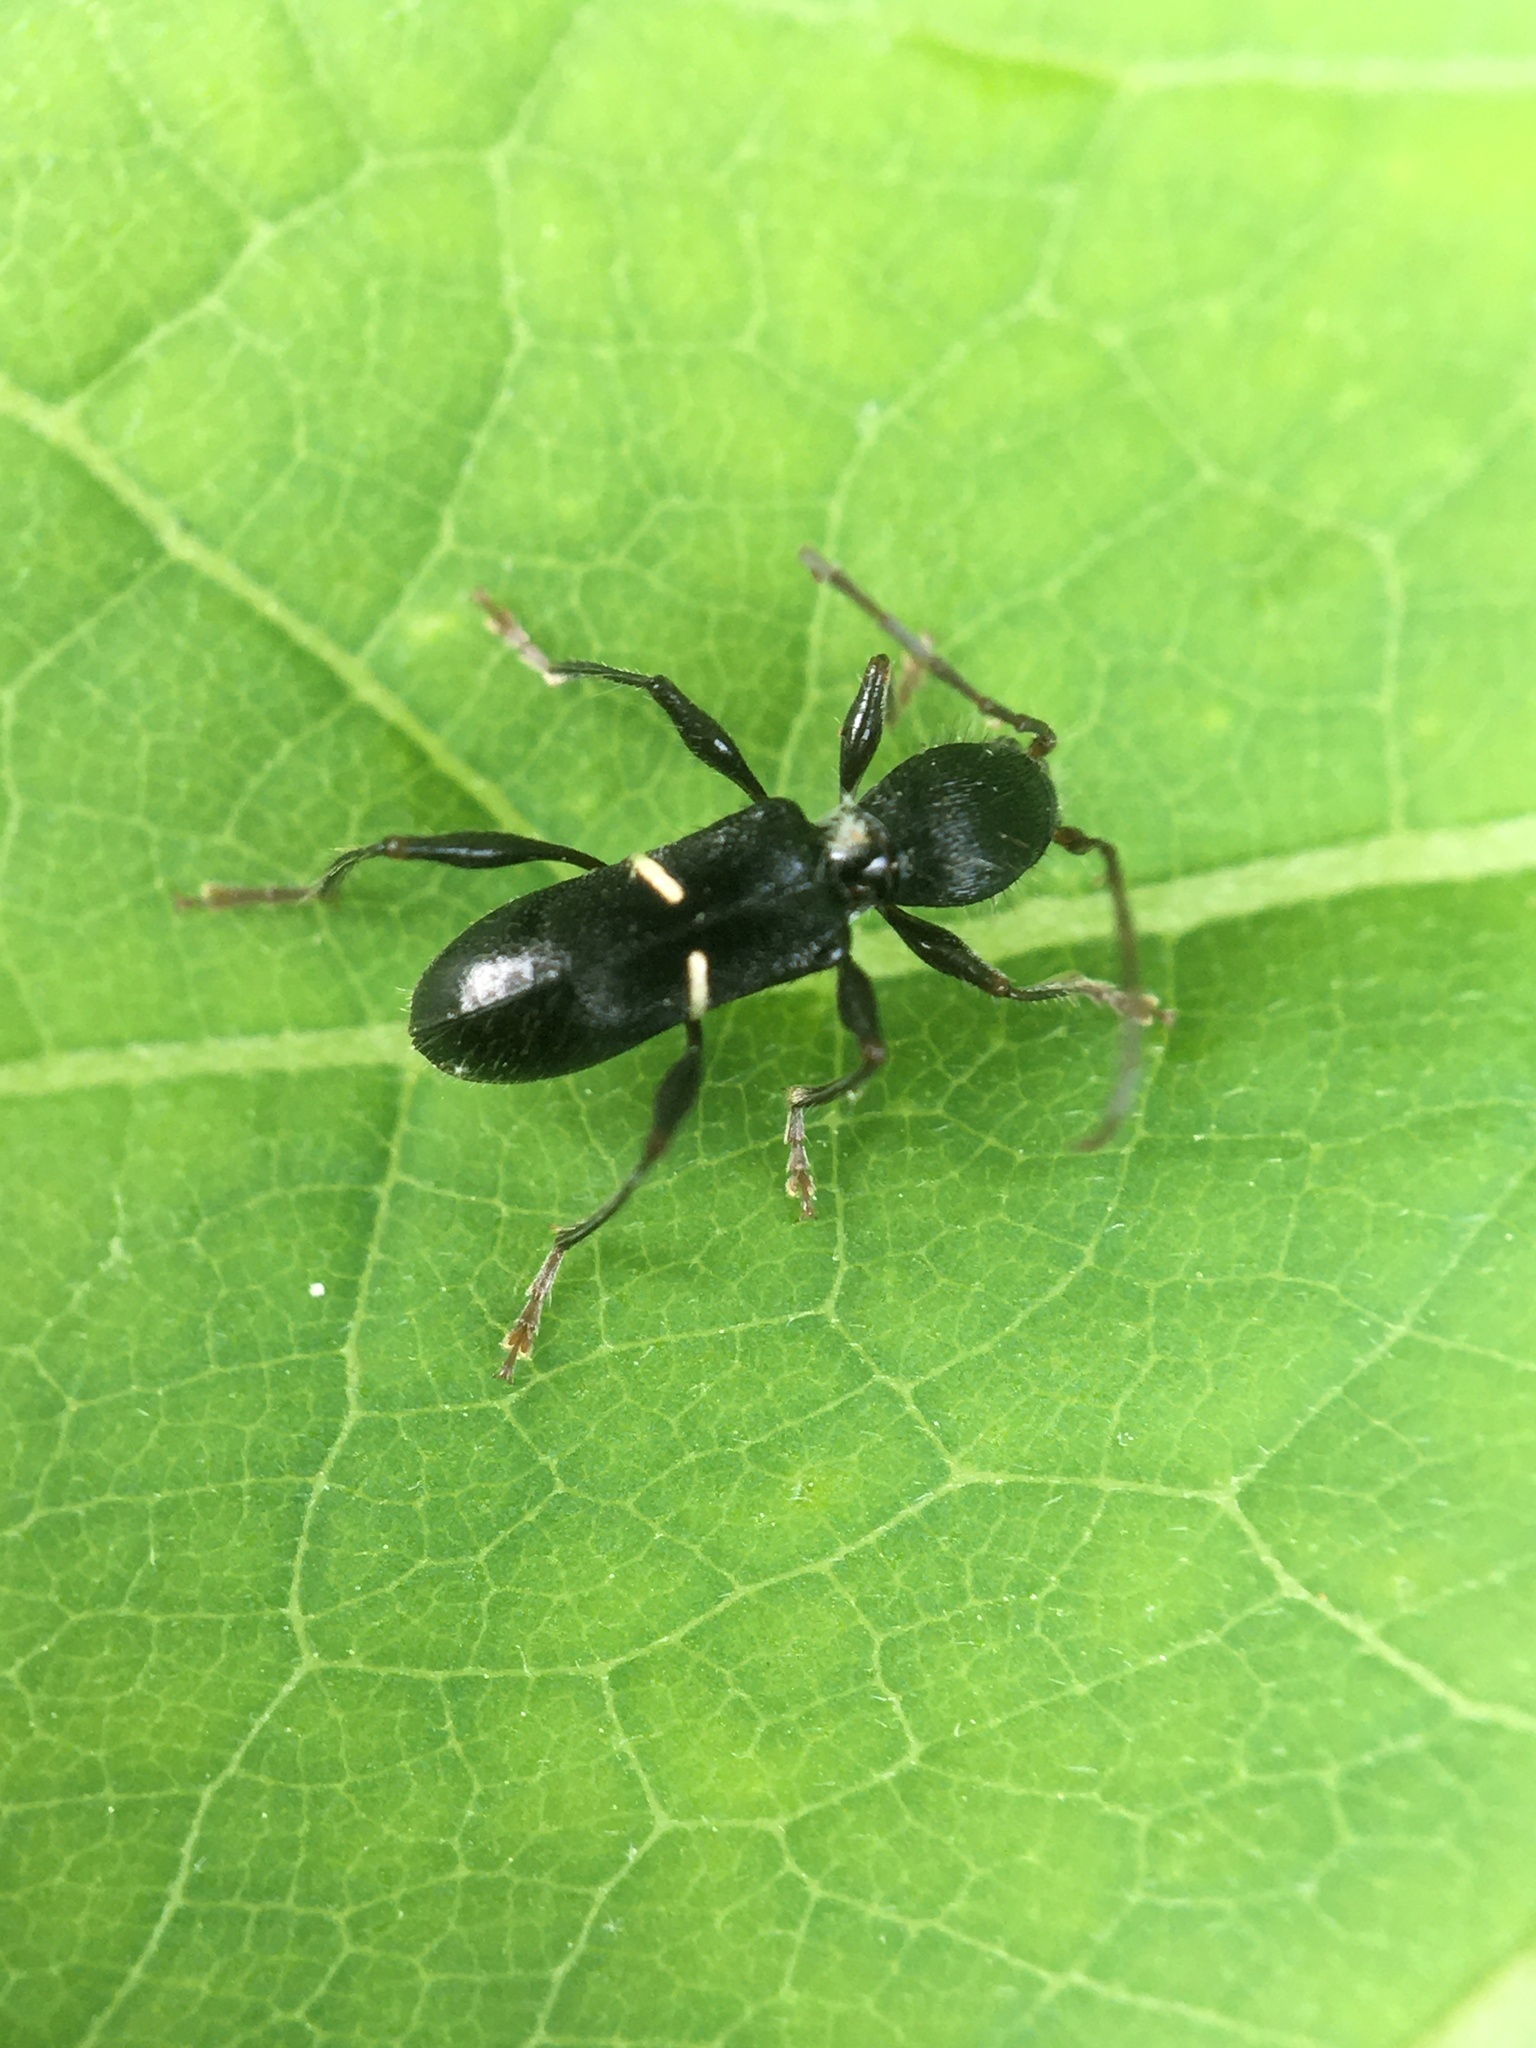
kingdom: Animalia
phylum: Arthropoda
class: Insecta
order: Coleoptera
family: Cerambycidae
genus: Euderces
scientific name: Euderces picipes
